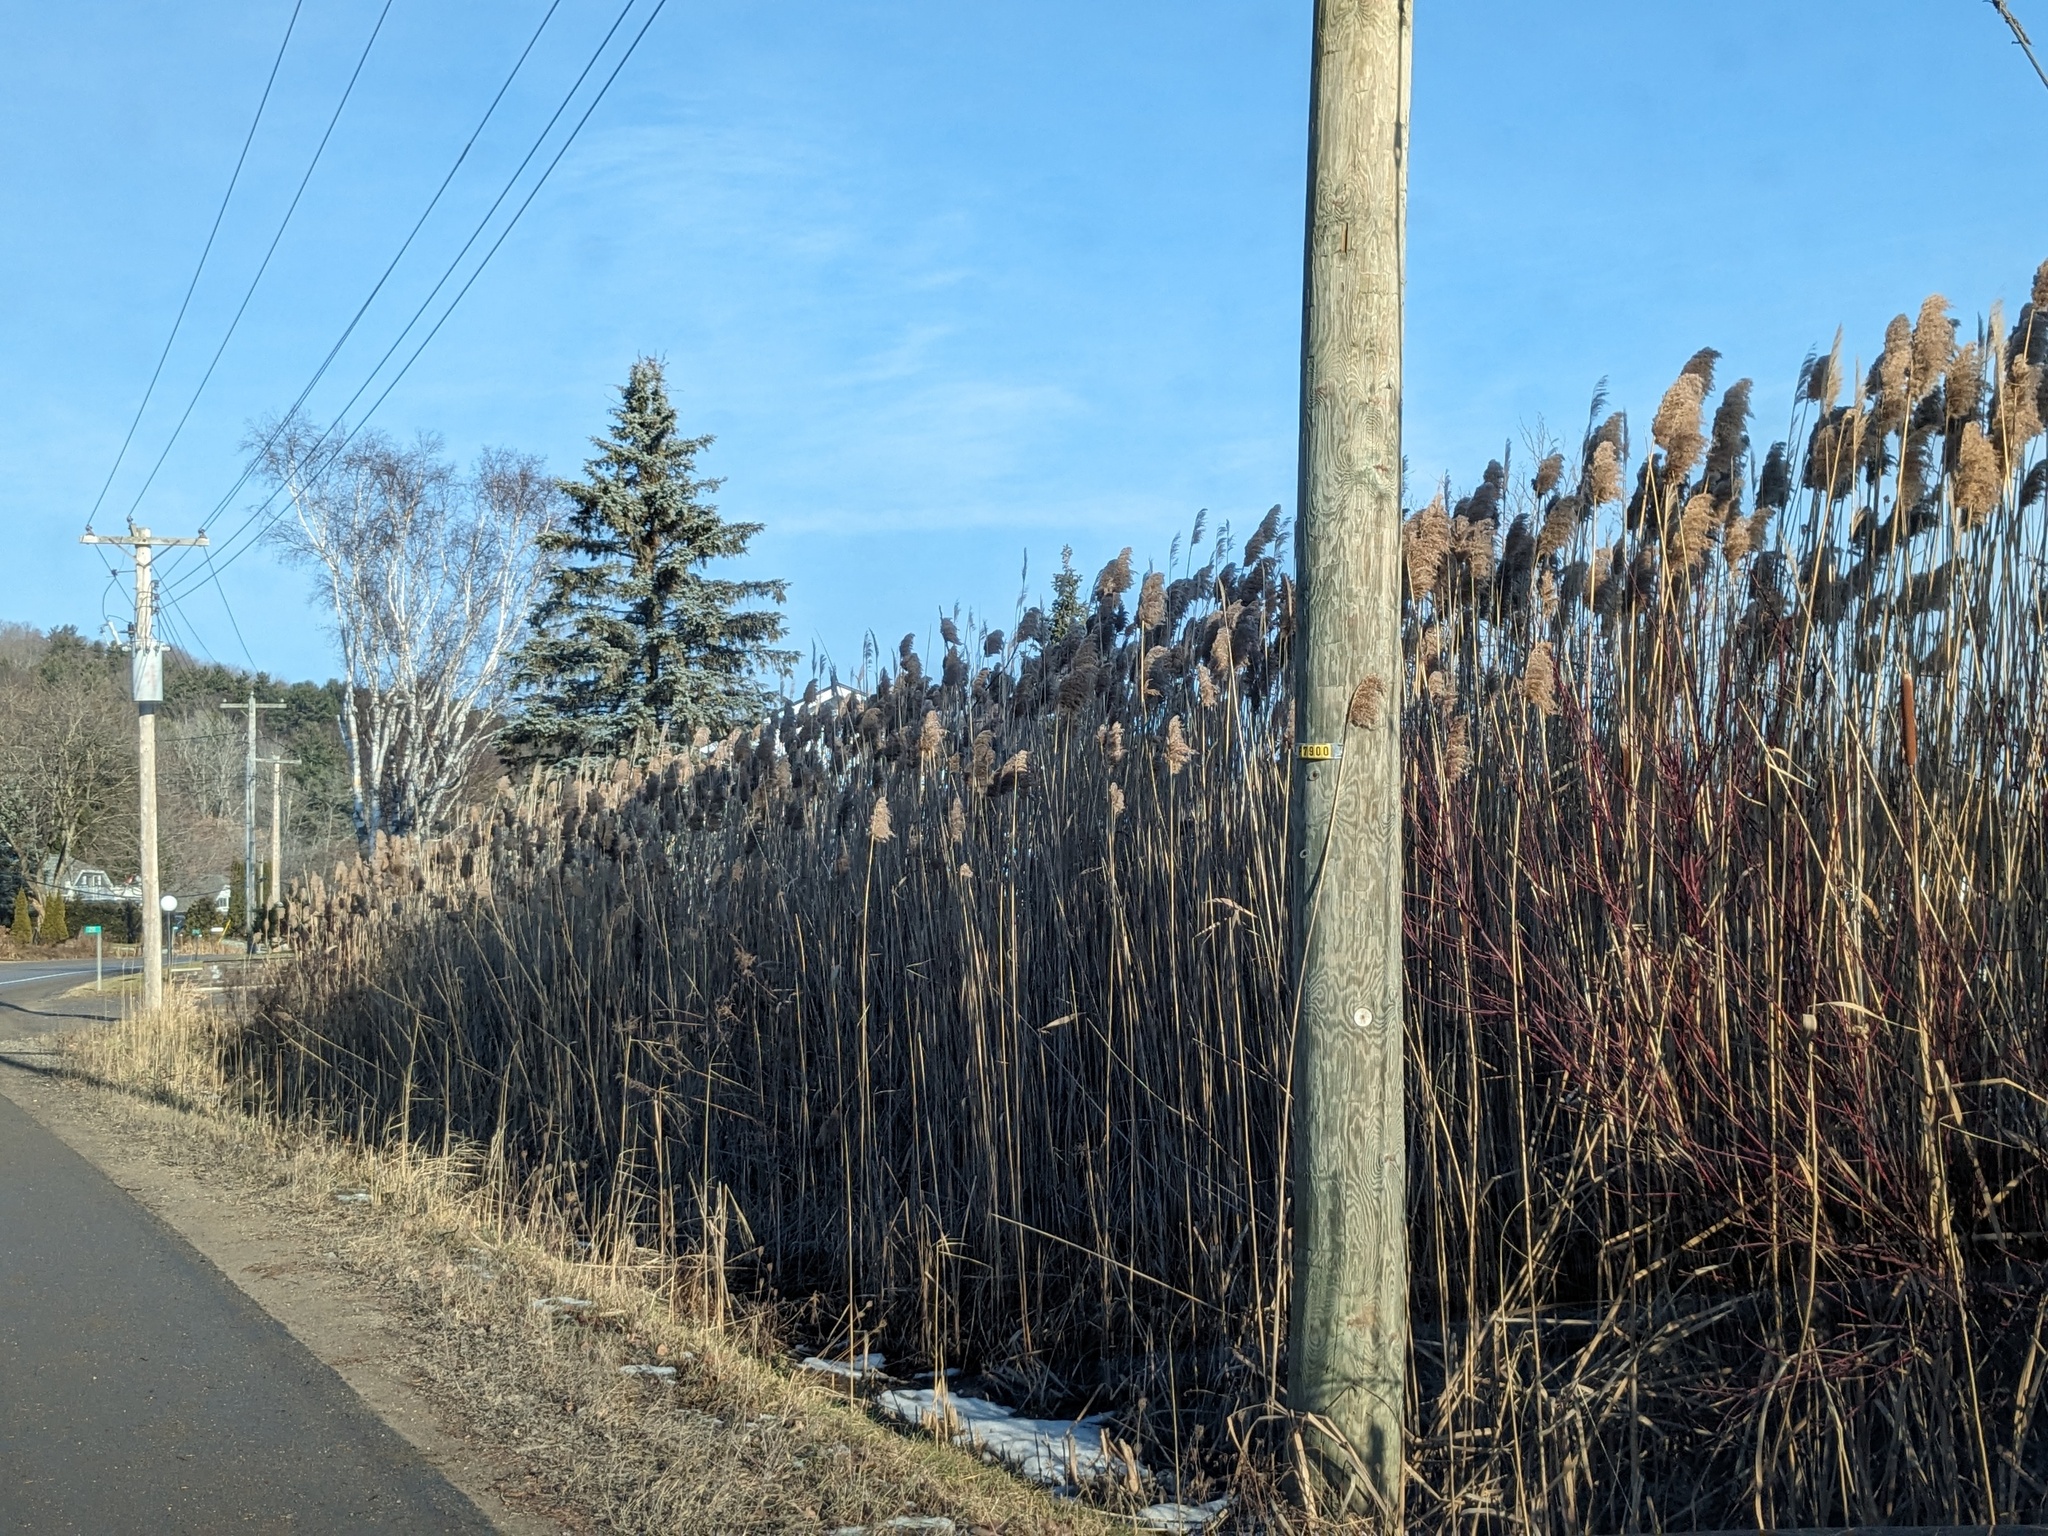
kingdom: Plantae
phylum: Tracheophyta
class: Liliopsida
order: Poales
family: Poaceae
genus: Phragmites
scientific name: Phragmites australis
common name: Common reed
